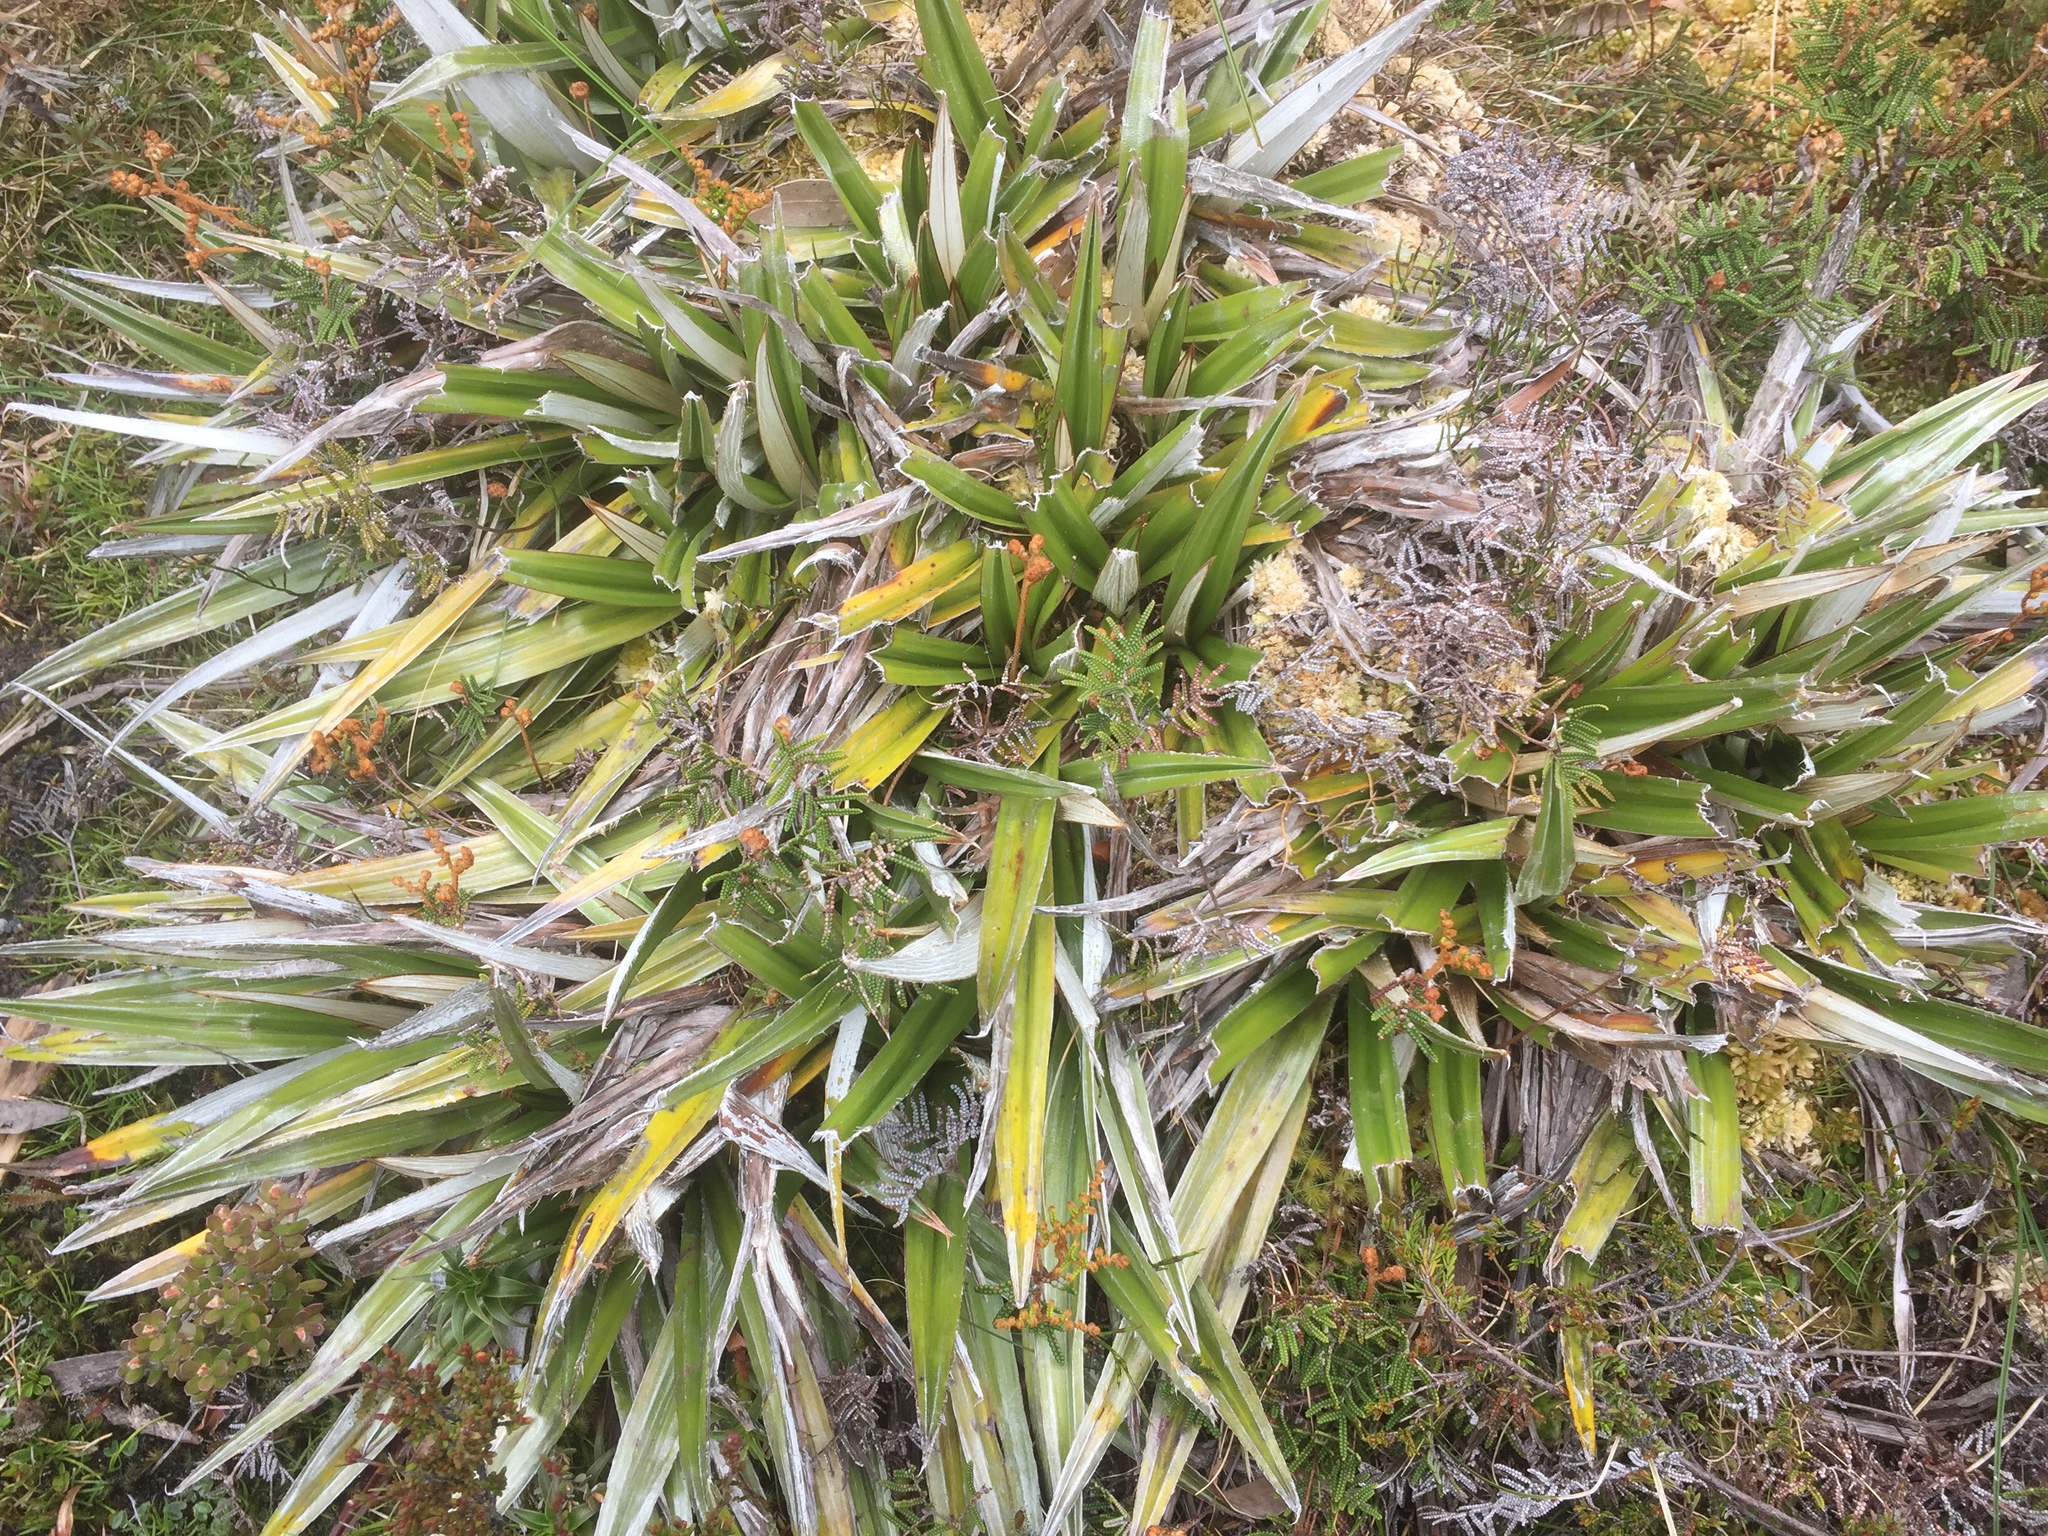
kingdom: Plantae
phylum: Tracheophyta
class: Liliopsida
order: Asparagales
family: Asteliaceae
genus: Astelia
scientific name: Astelia alpina
